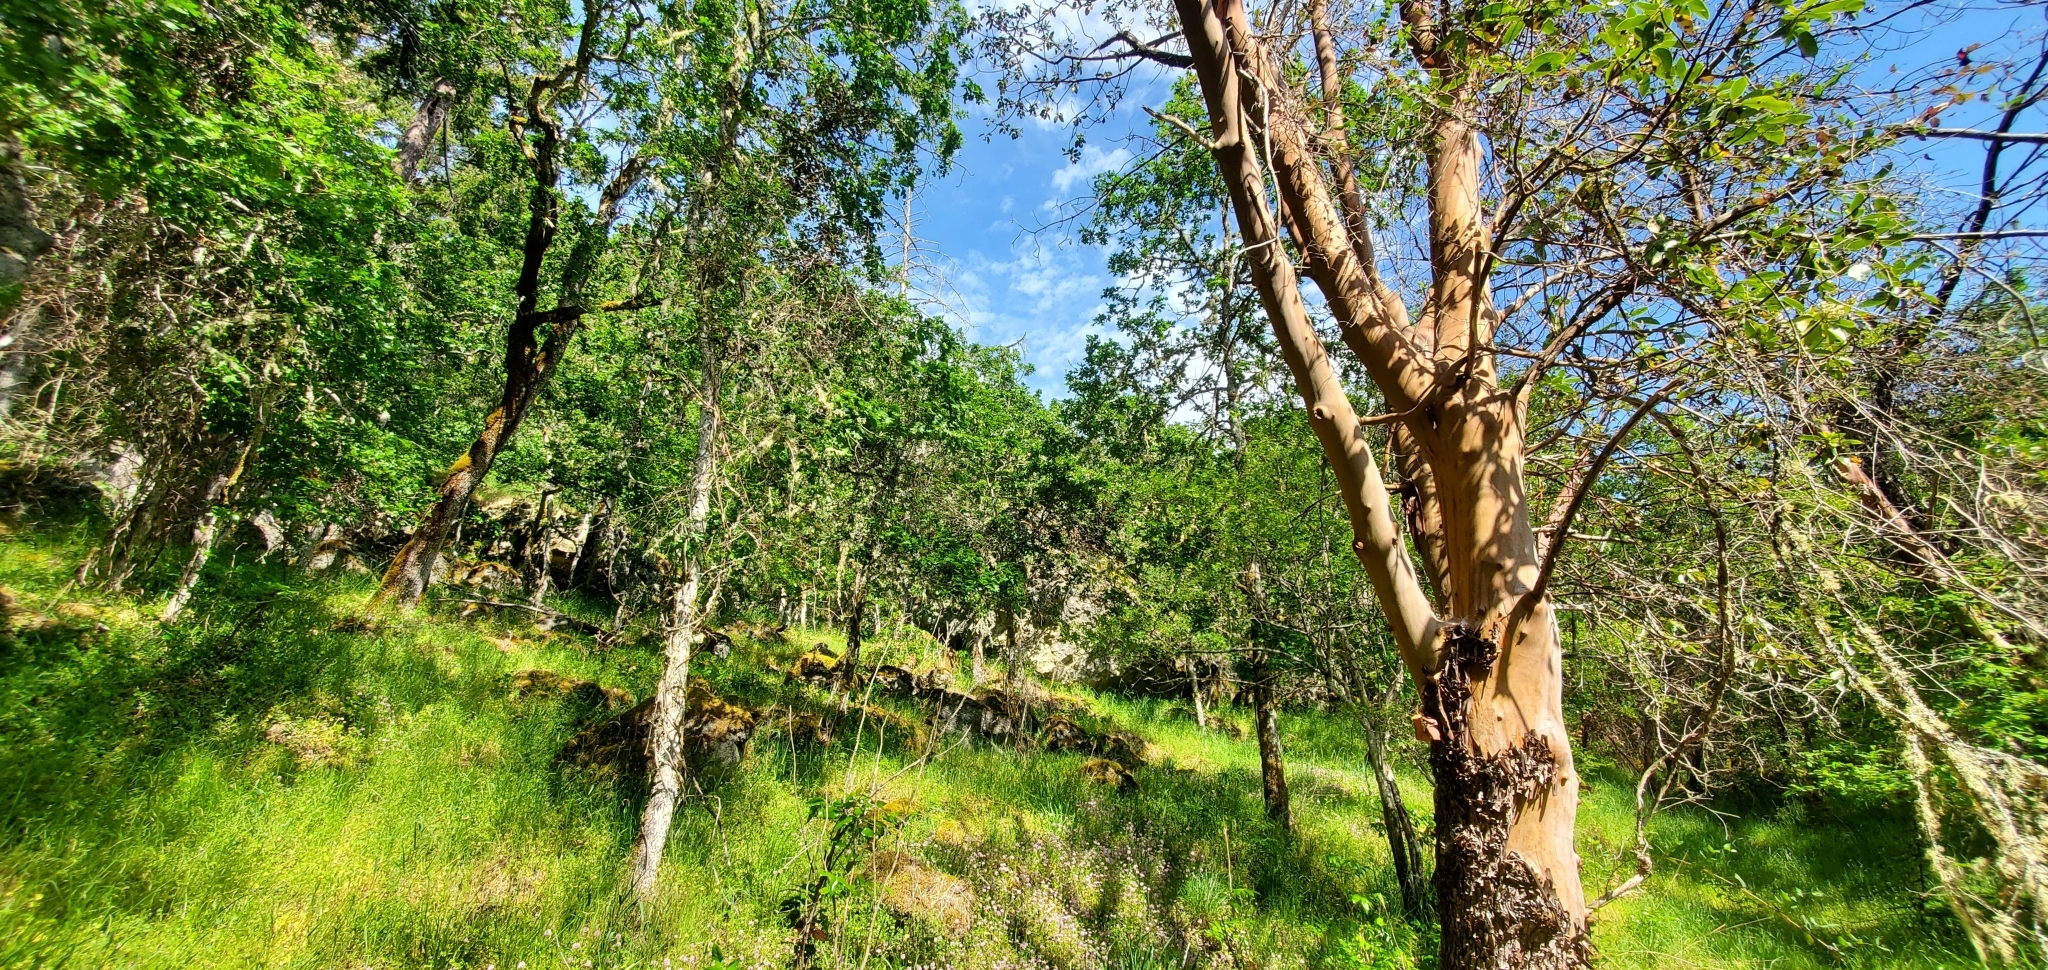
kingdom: Plantae
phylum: Tracheophyta
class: Magnoliopsida
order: Ericales
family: Ericaceae
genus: Arbutus
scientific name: Arbutus menziesii
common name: Pacific madrone
